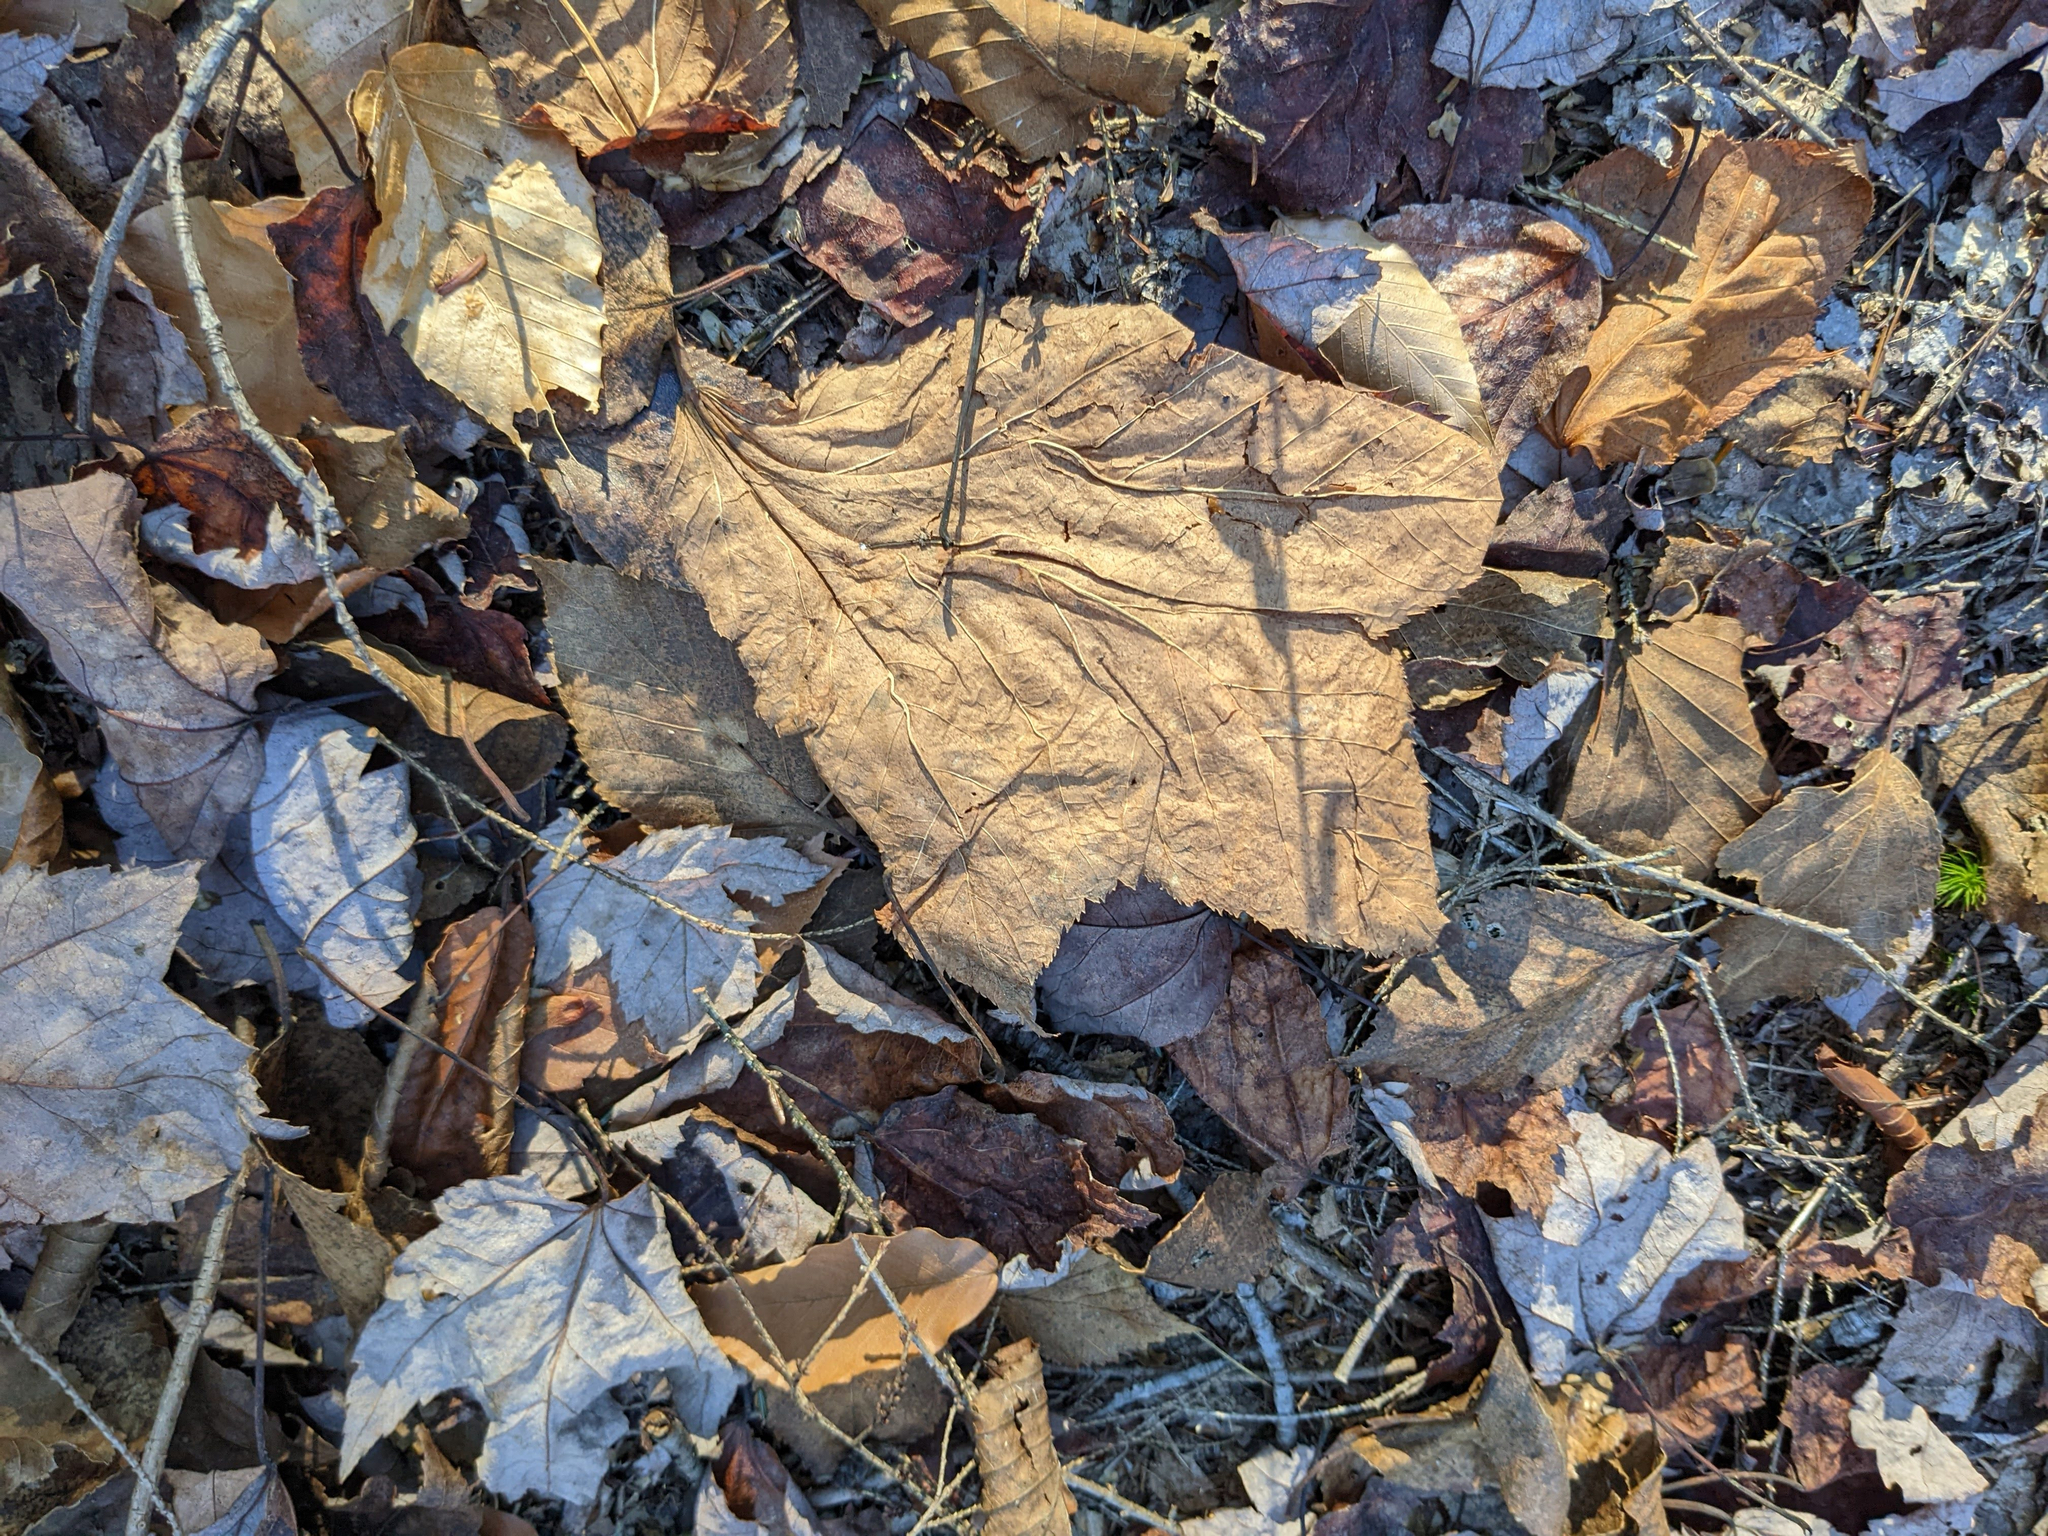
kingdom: Plantae
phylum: Tracheophyta
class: Magnoliopsida
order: Sapindales
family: Sapindaceae
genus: Acer
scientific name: Acer pensylvanicum
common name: Moosewood
